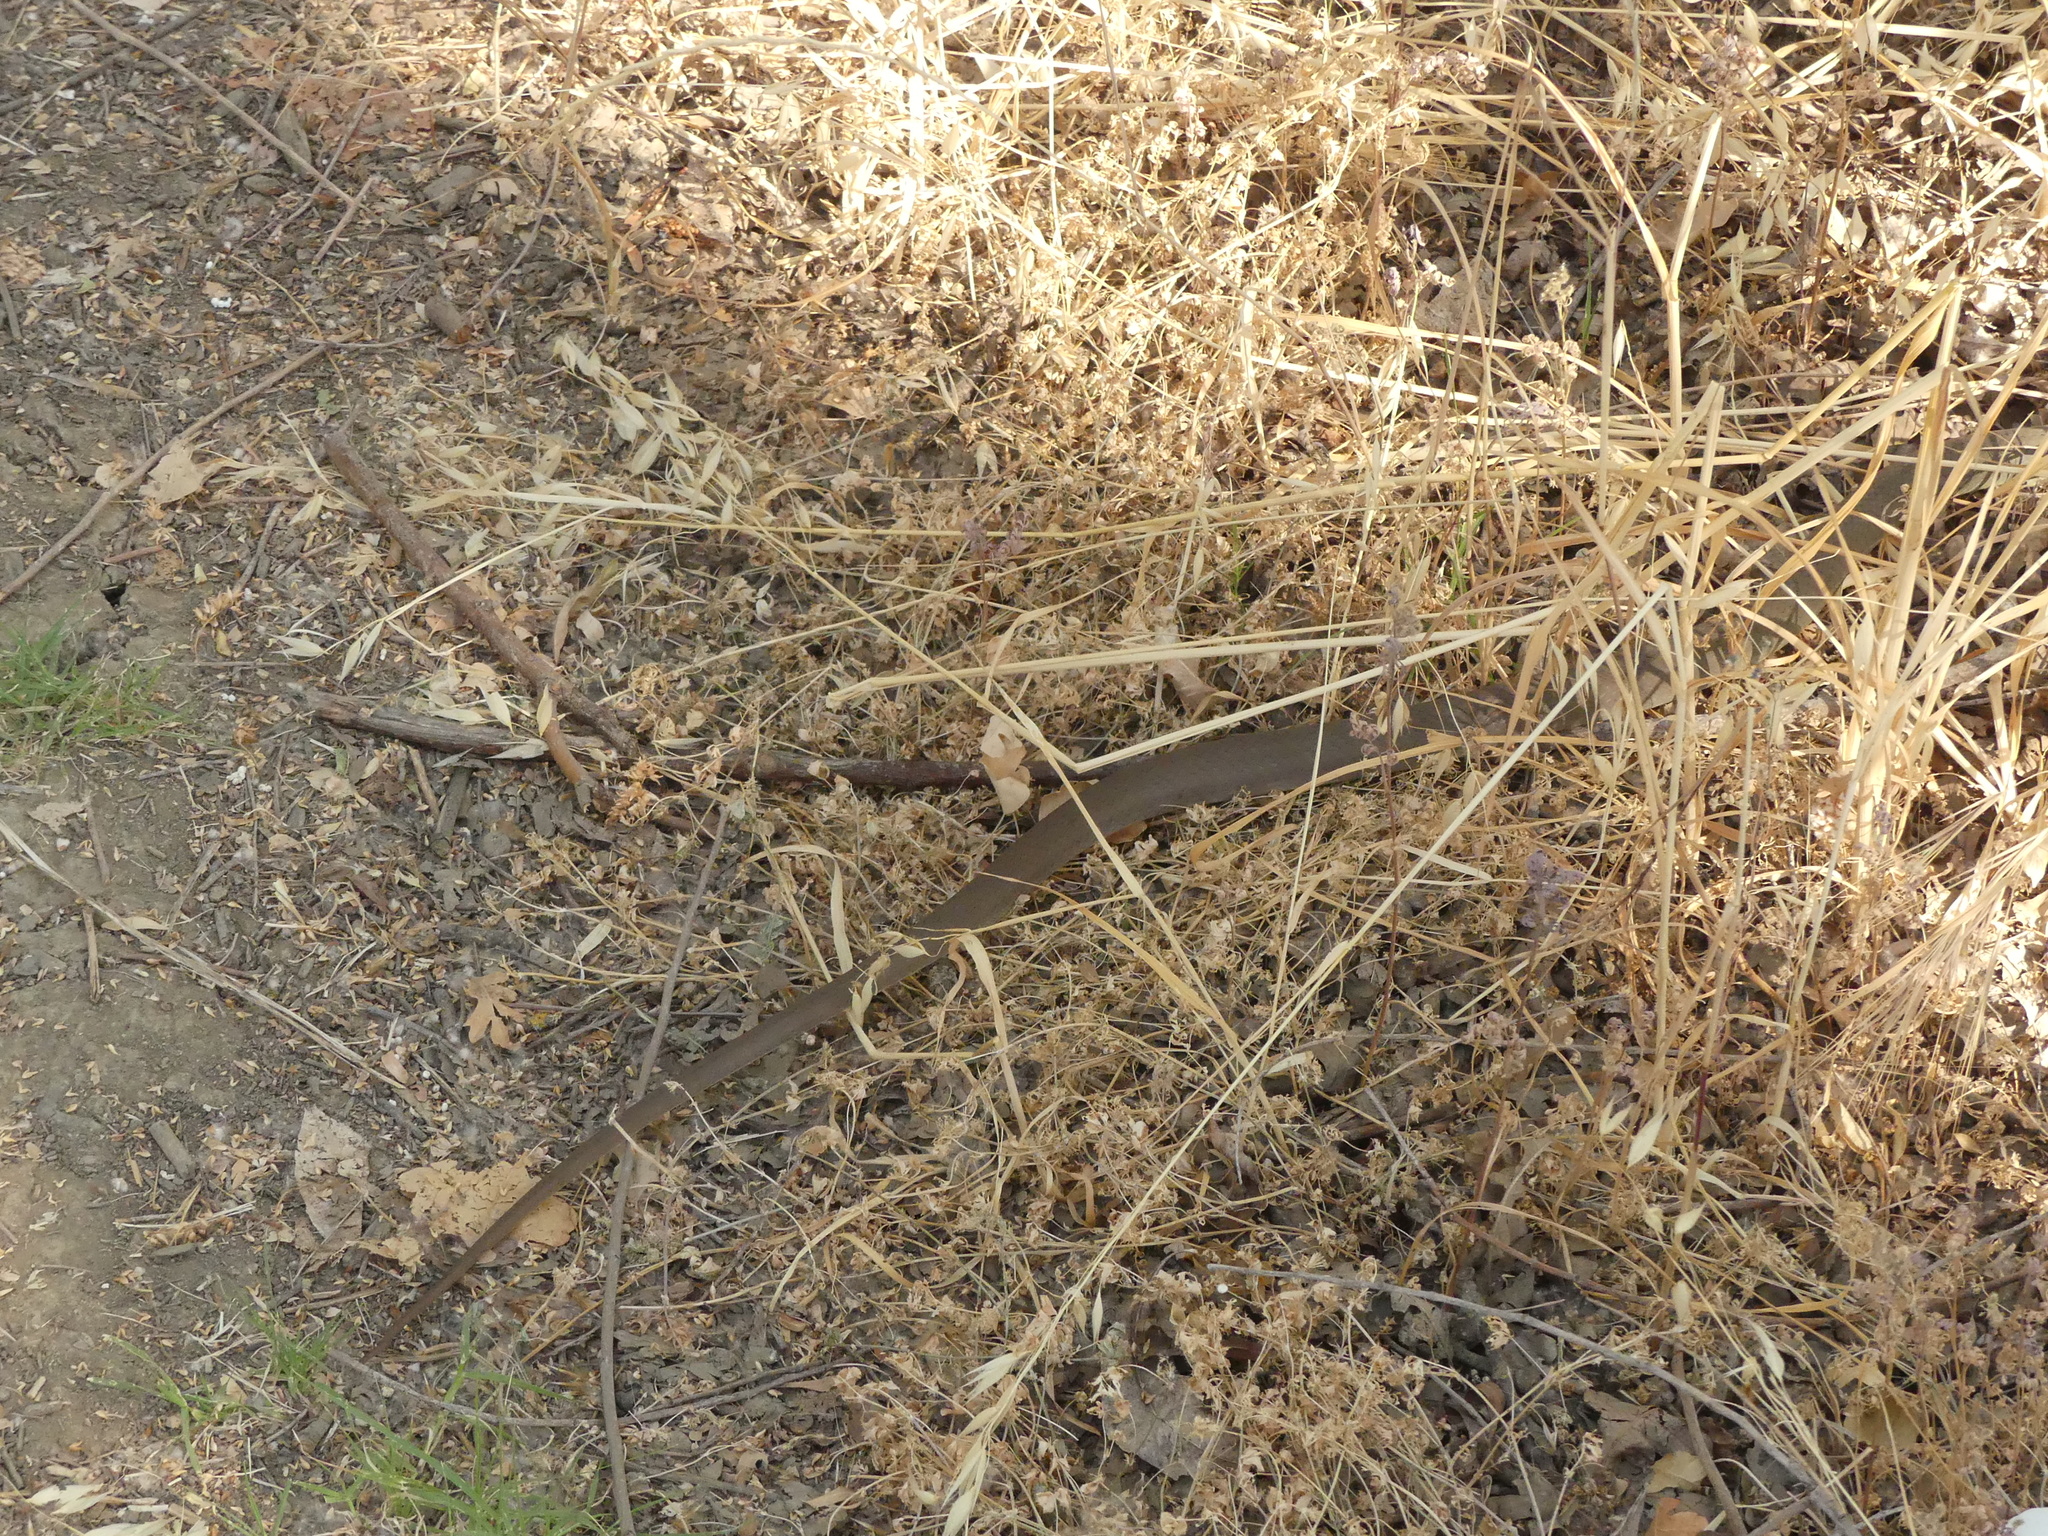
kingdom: Animalia
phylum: Chordata
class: Squamata
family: Colubridae
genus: Coluber
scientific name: Coluber constrictor
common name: Eastern racer
